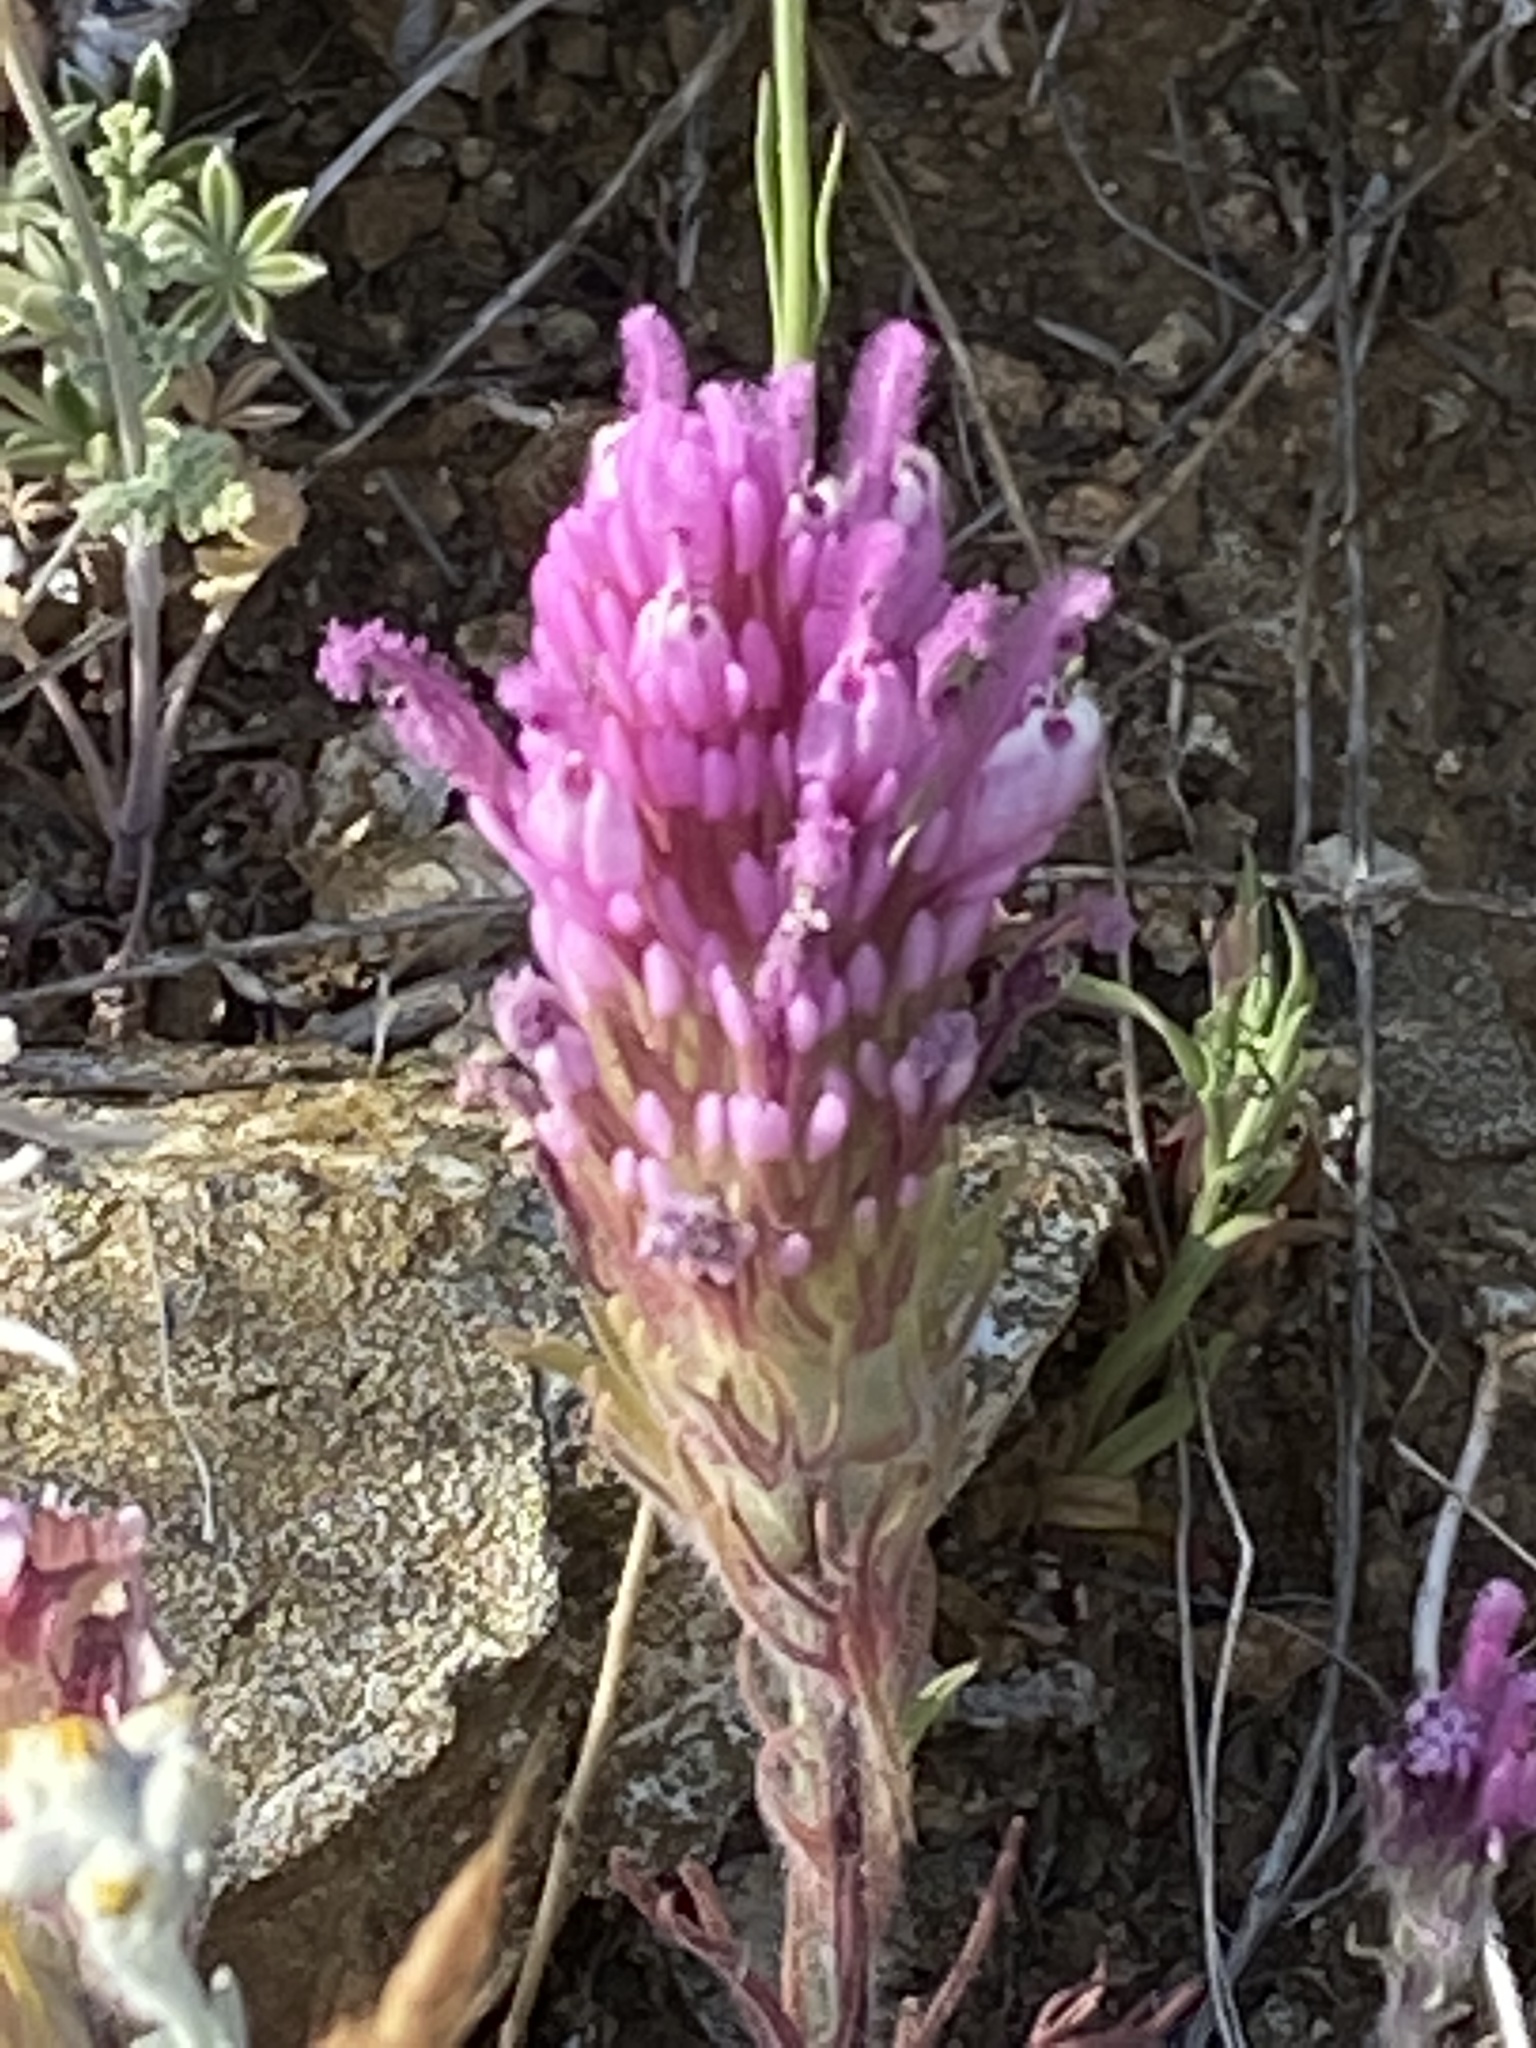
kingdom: Plantae
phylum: Tracheophyta
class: Magnoliopsida
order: Lamiales
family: Orobanchaceae
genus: Castilleja
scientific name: Castilleja exserta
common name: Purple owl-clover
